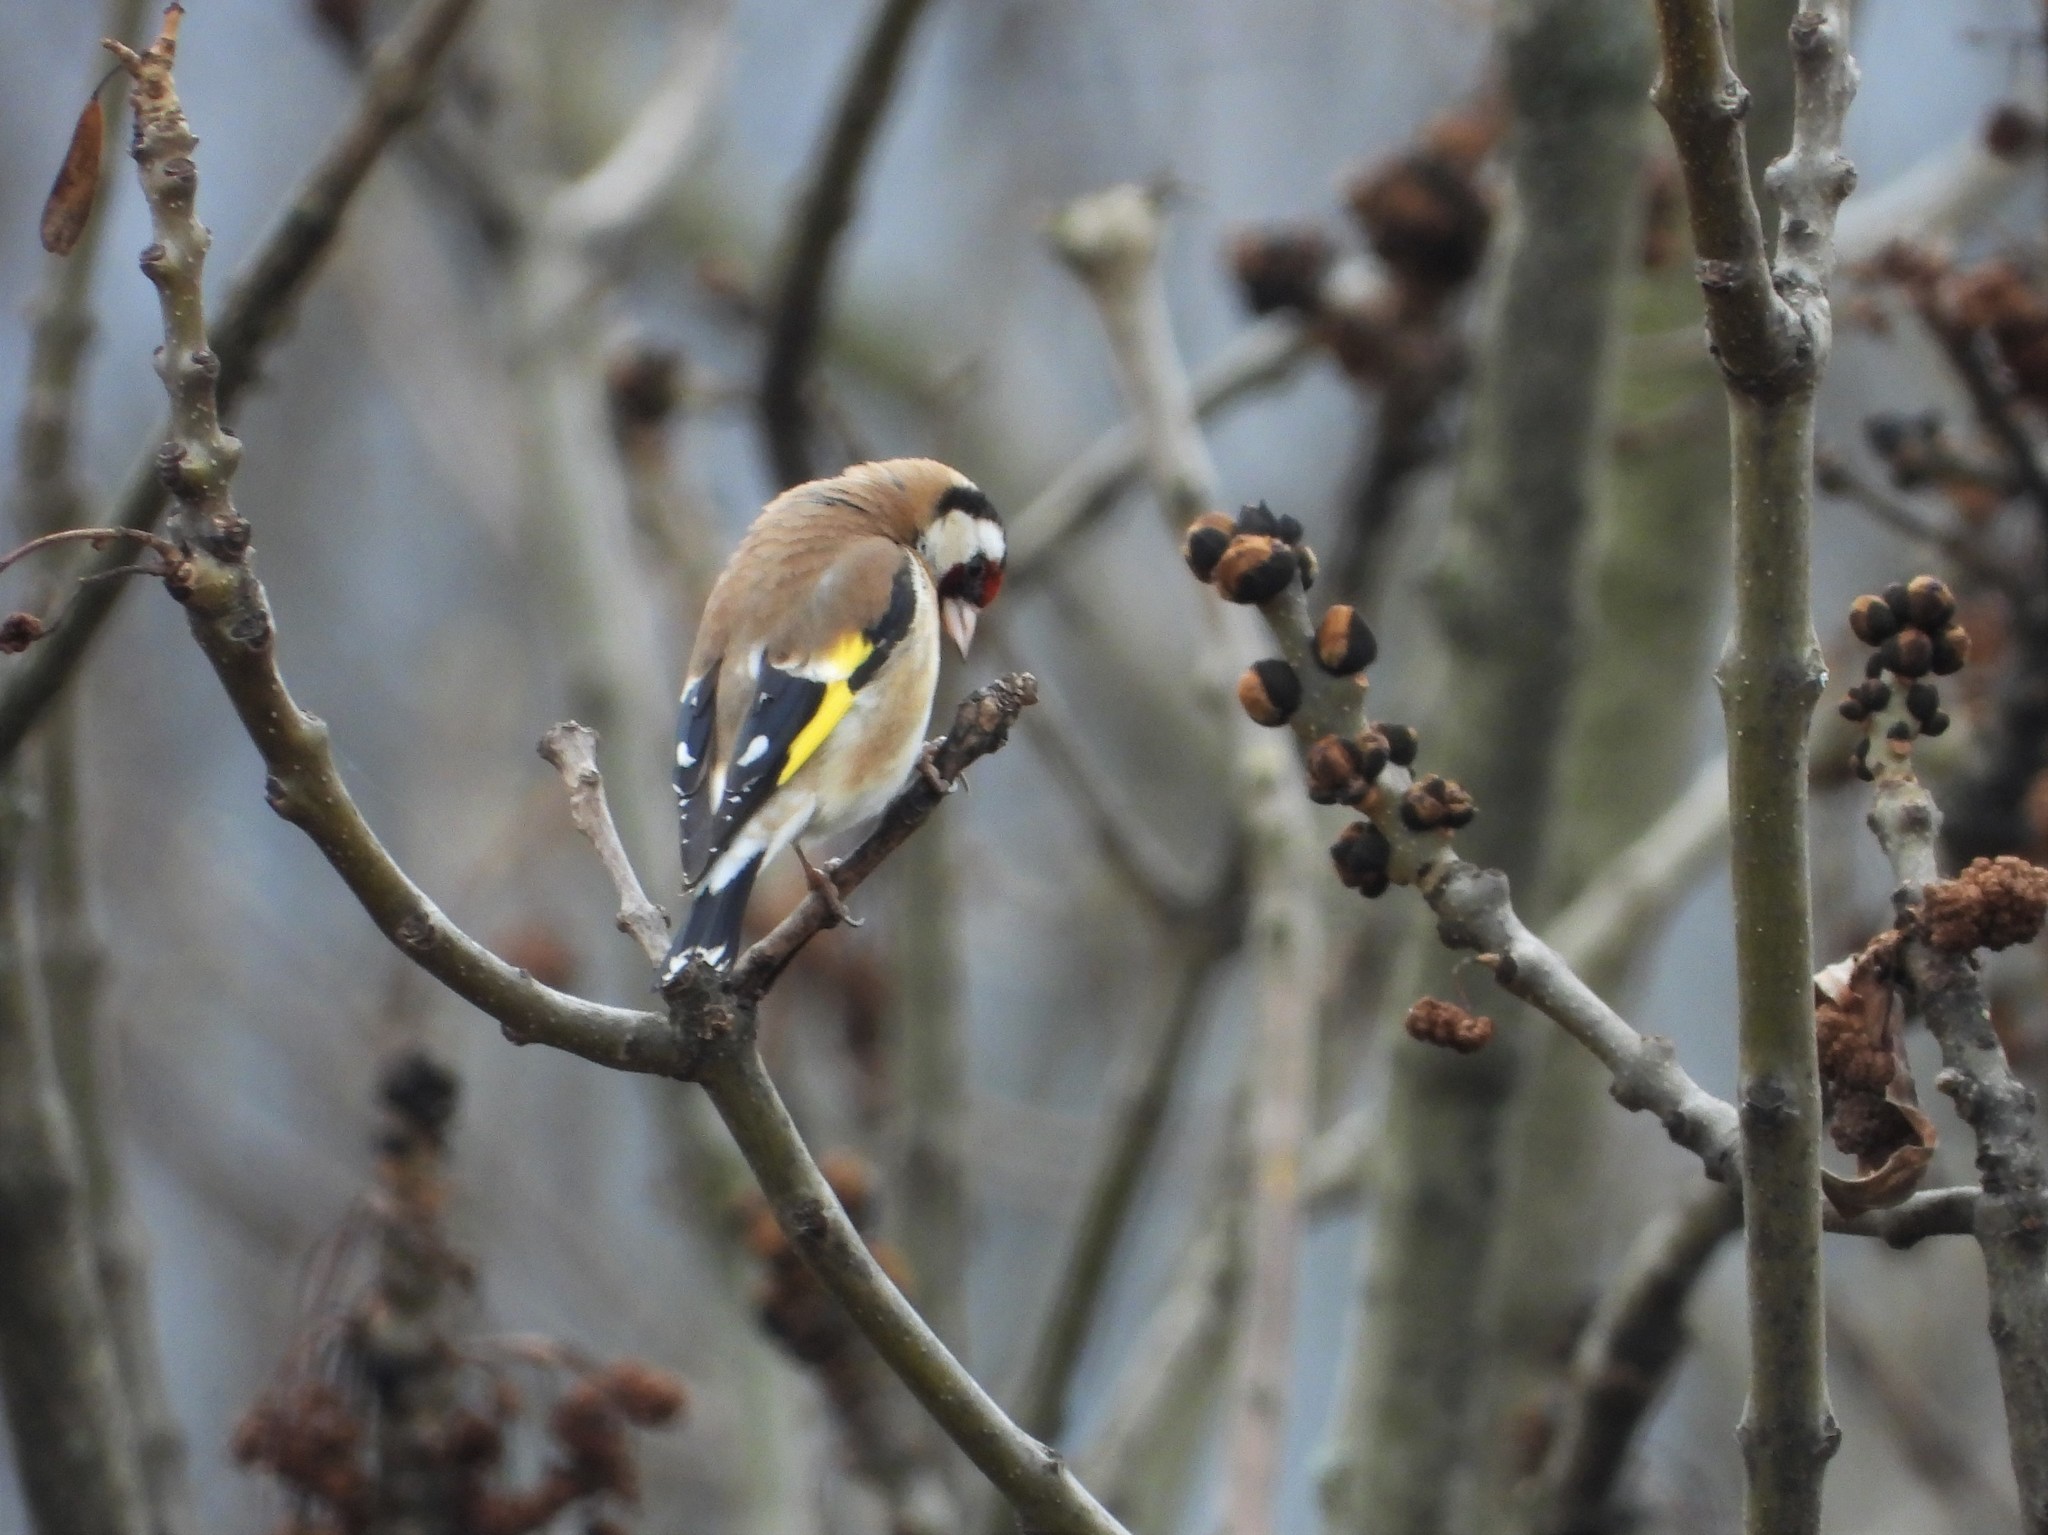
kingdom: Animalia
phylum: Chordata
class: Aves
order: Passeriformes
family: Fringillidae
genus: Carduelis
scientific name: Carduelis carduelis
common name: European goldfinch
